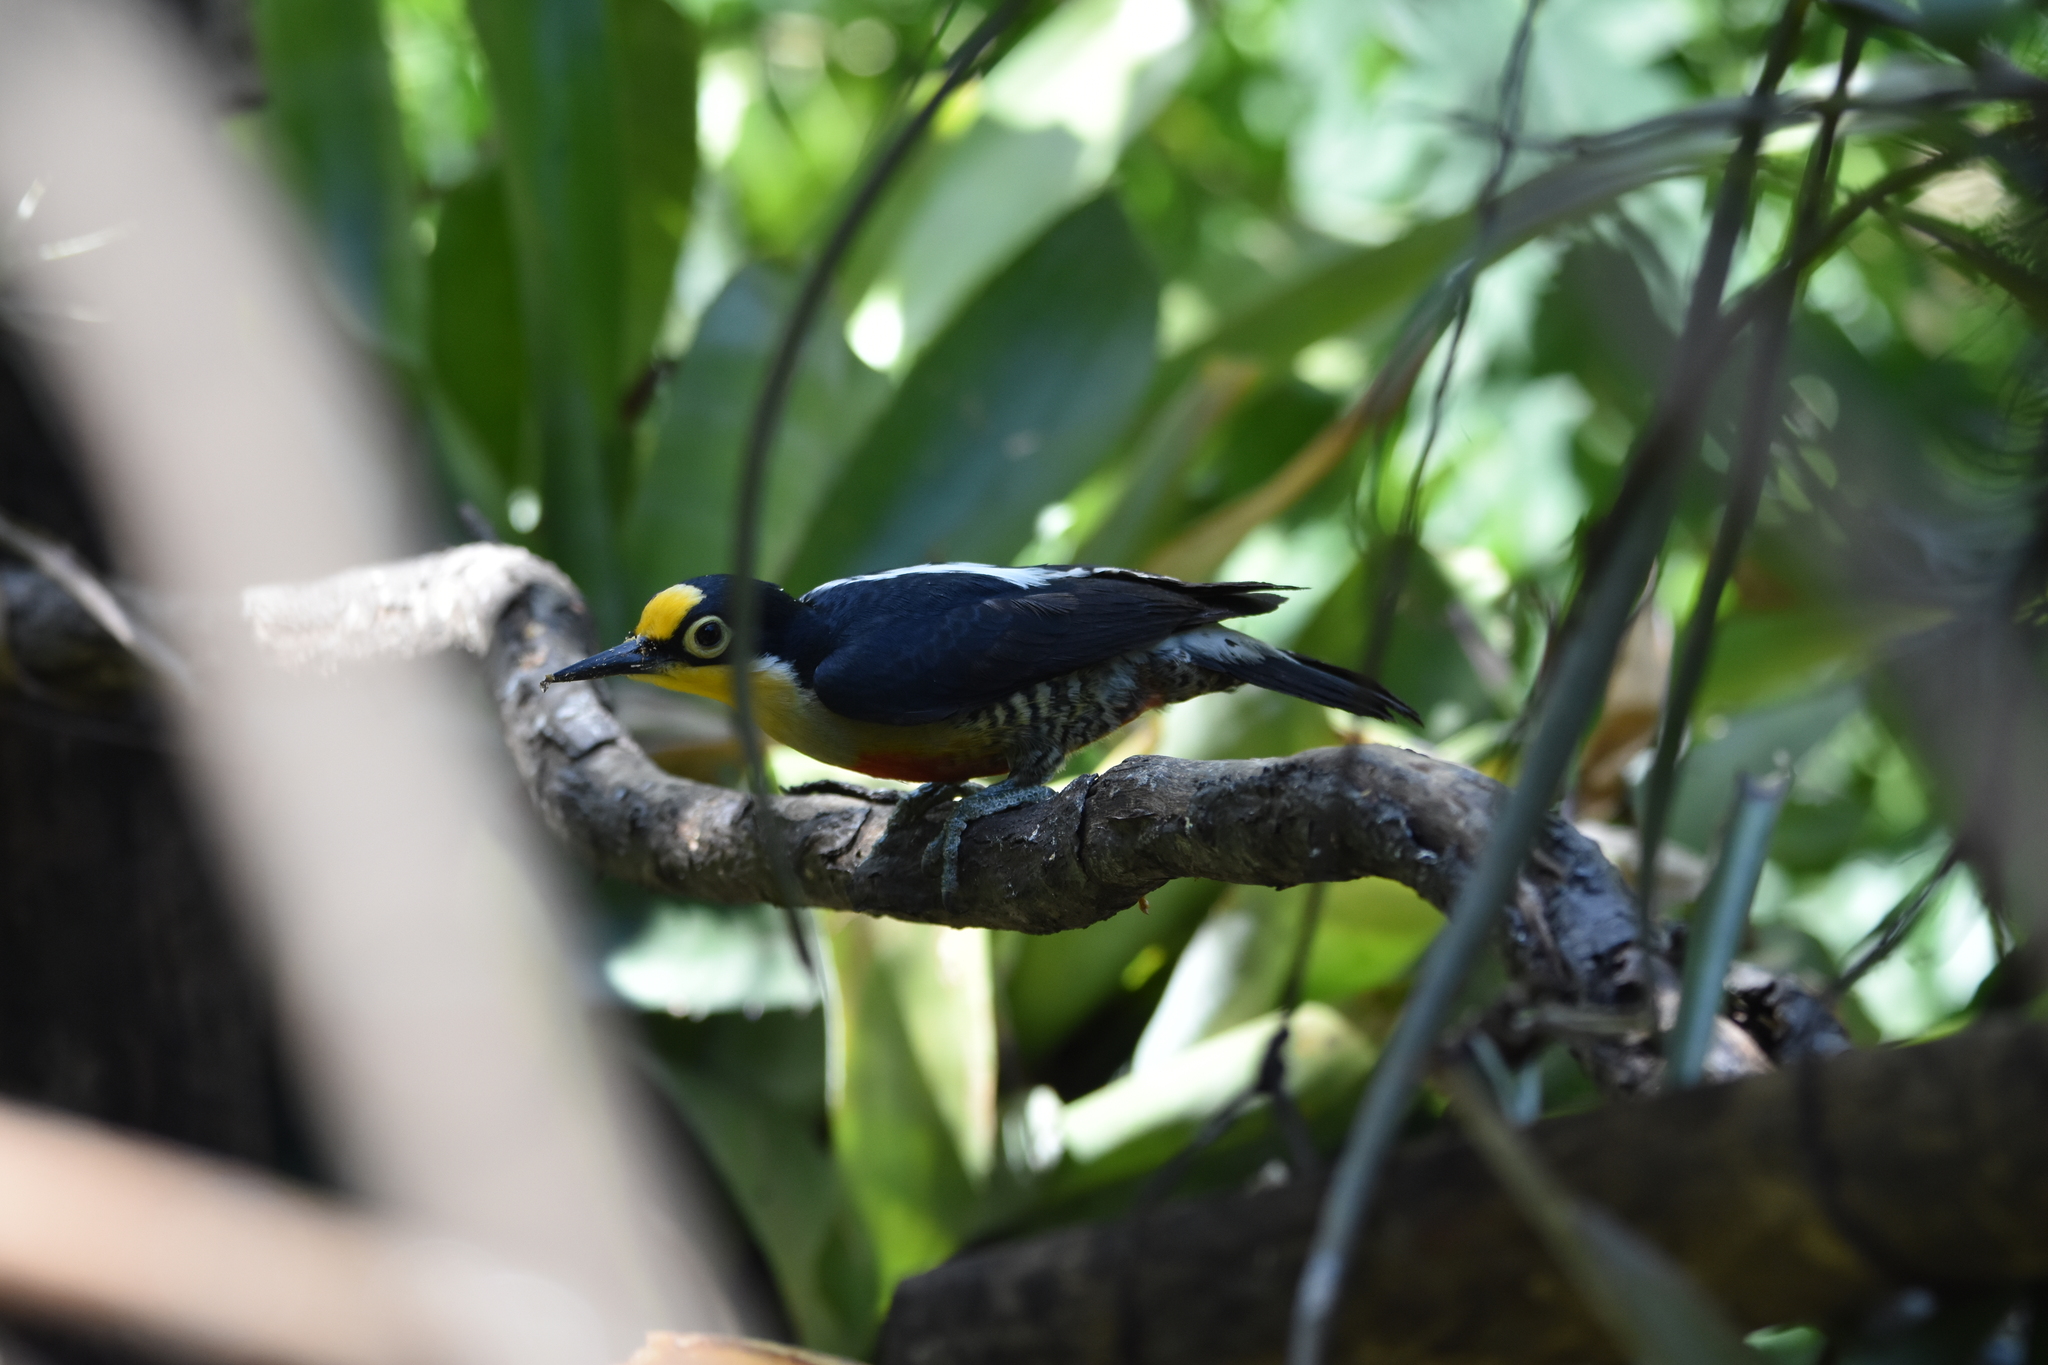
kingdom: Animalia
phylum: Chordata
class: Aves
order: Piciformes
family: Picidae
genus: Melanerpes
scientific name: Melanerpes flavifrons
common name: Yellow-fronted woodpecker
